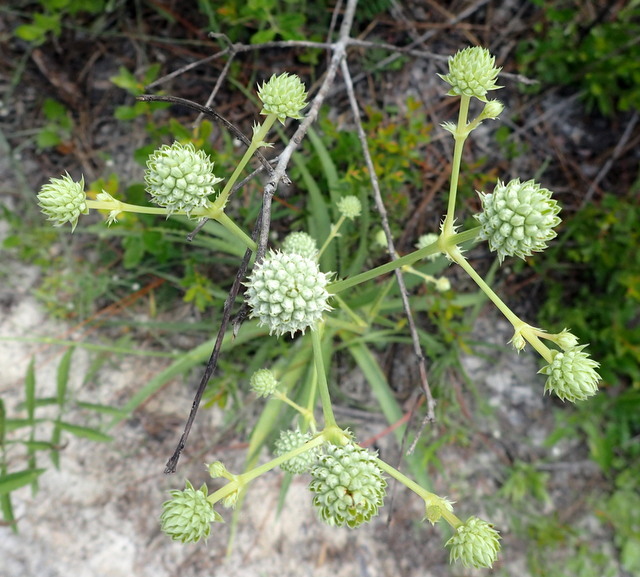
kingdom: Plantae
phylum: Tracheophyta
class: Magnoliopsida
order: Apiales
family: Apiaceae
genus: Eryngium
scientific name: Eryngium yuccifolium
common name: Button eryngo
